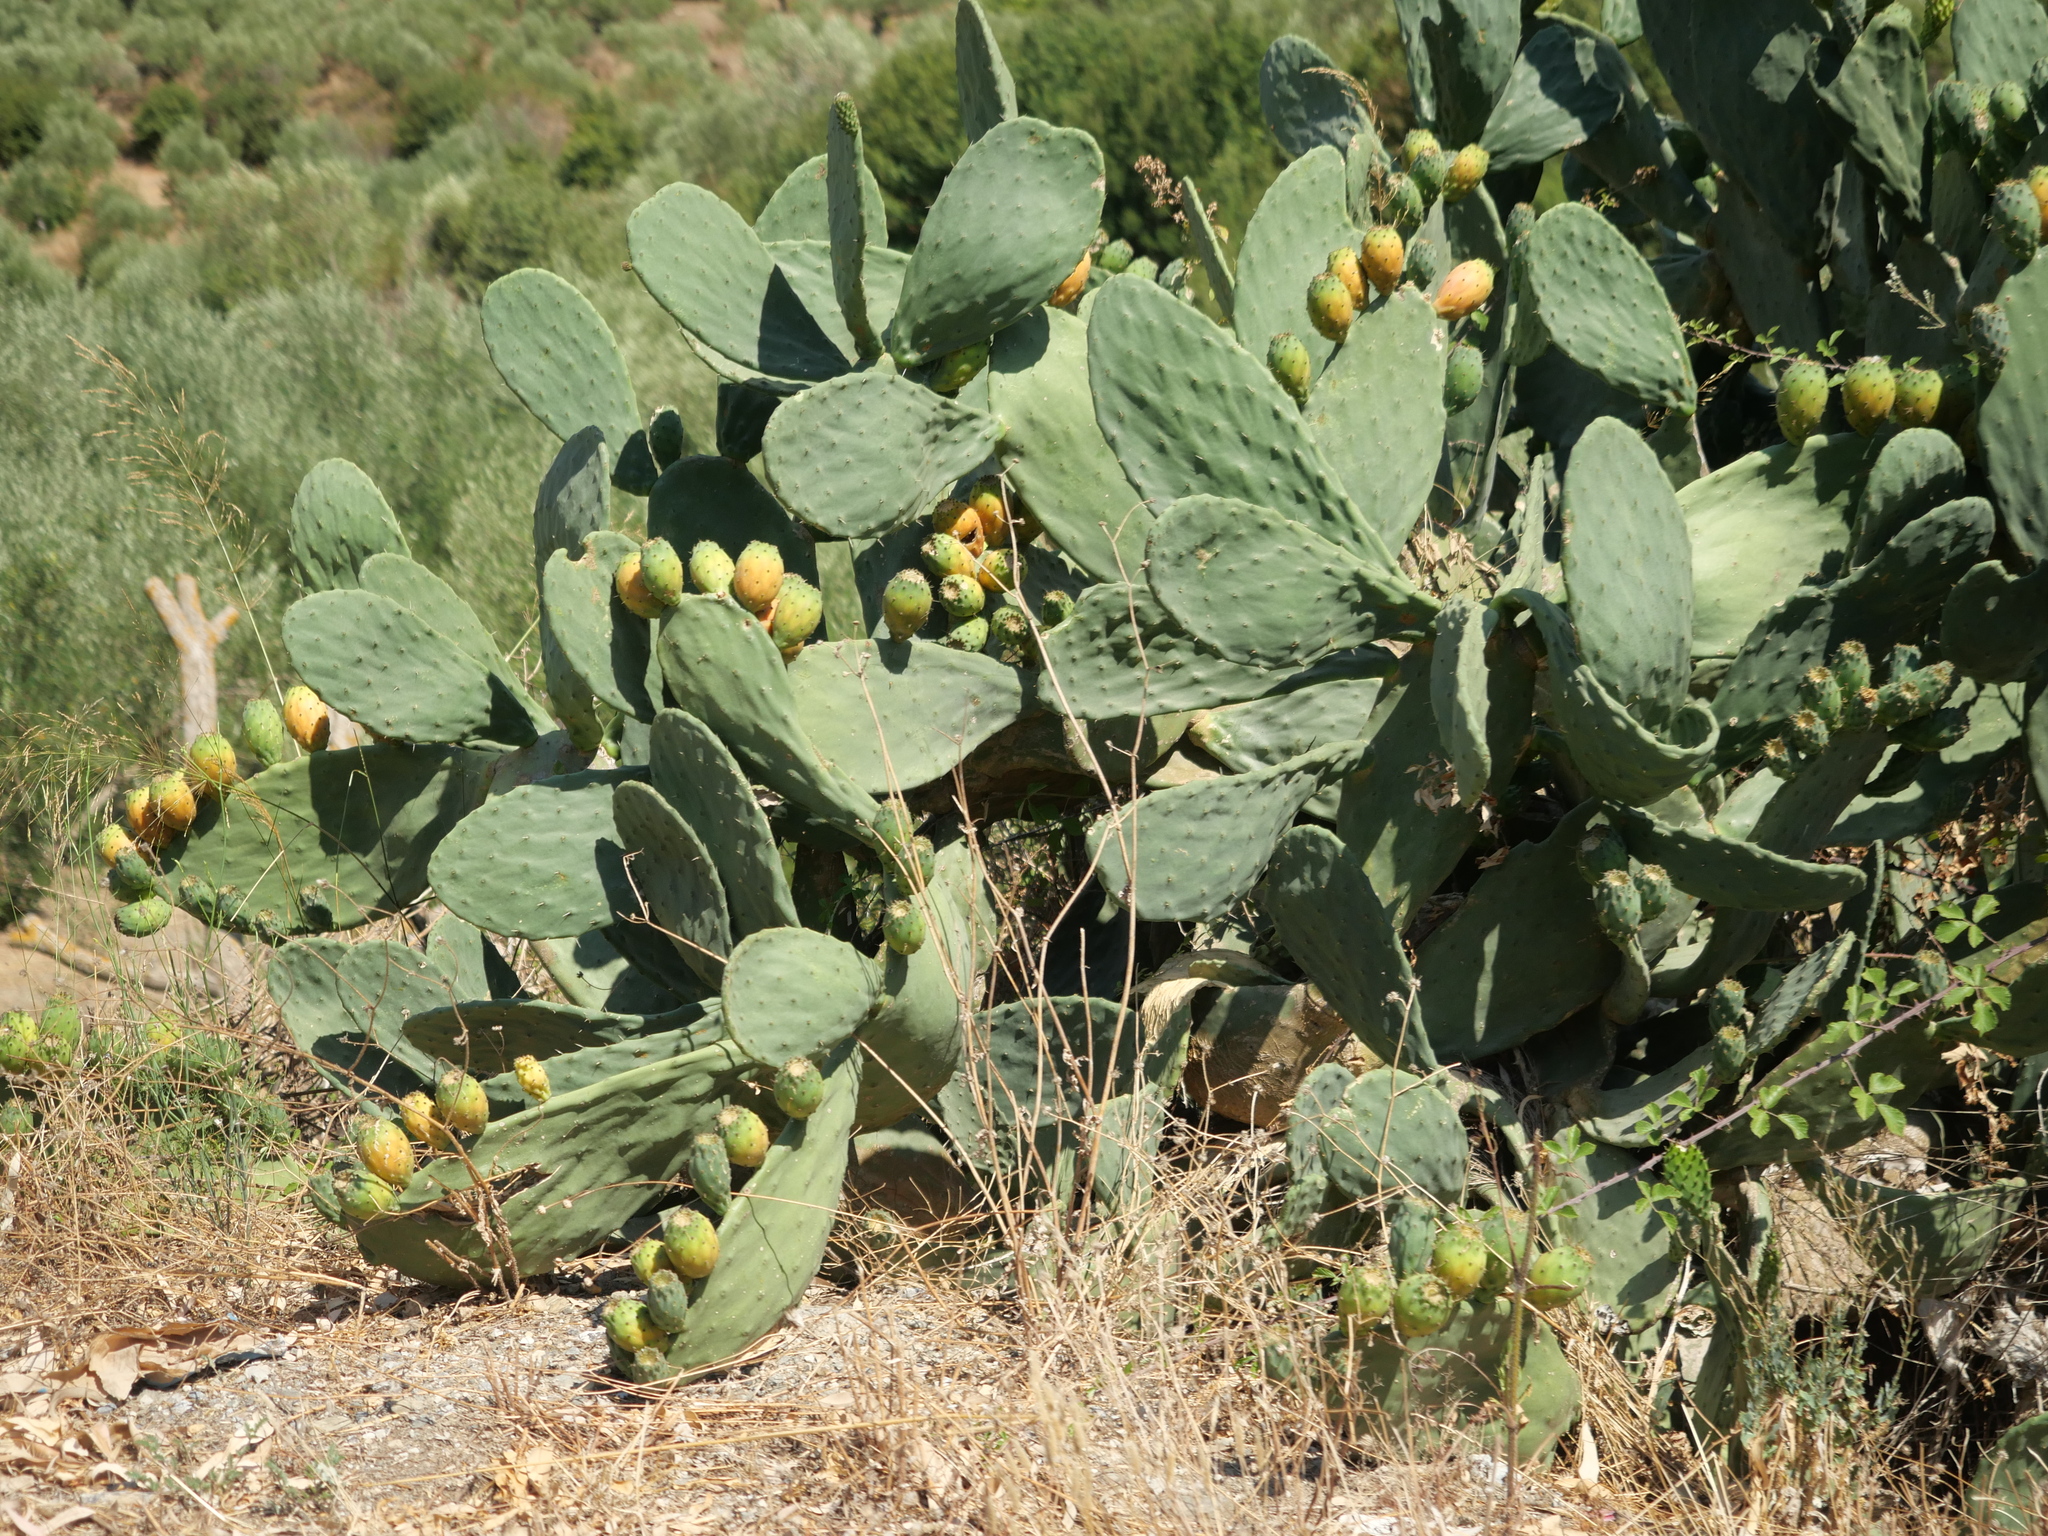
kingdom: Plantae
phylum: Tracheophyta
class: Magnoliopsida
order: Caryophyllales
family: Cactaceae
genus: Opuntia
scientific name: Opuntia ficus-indica
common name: Barbary fig
